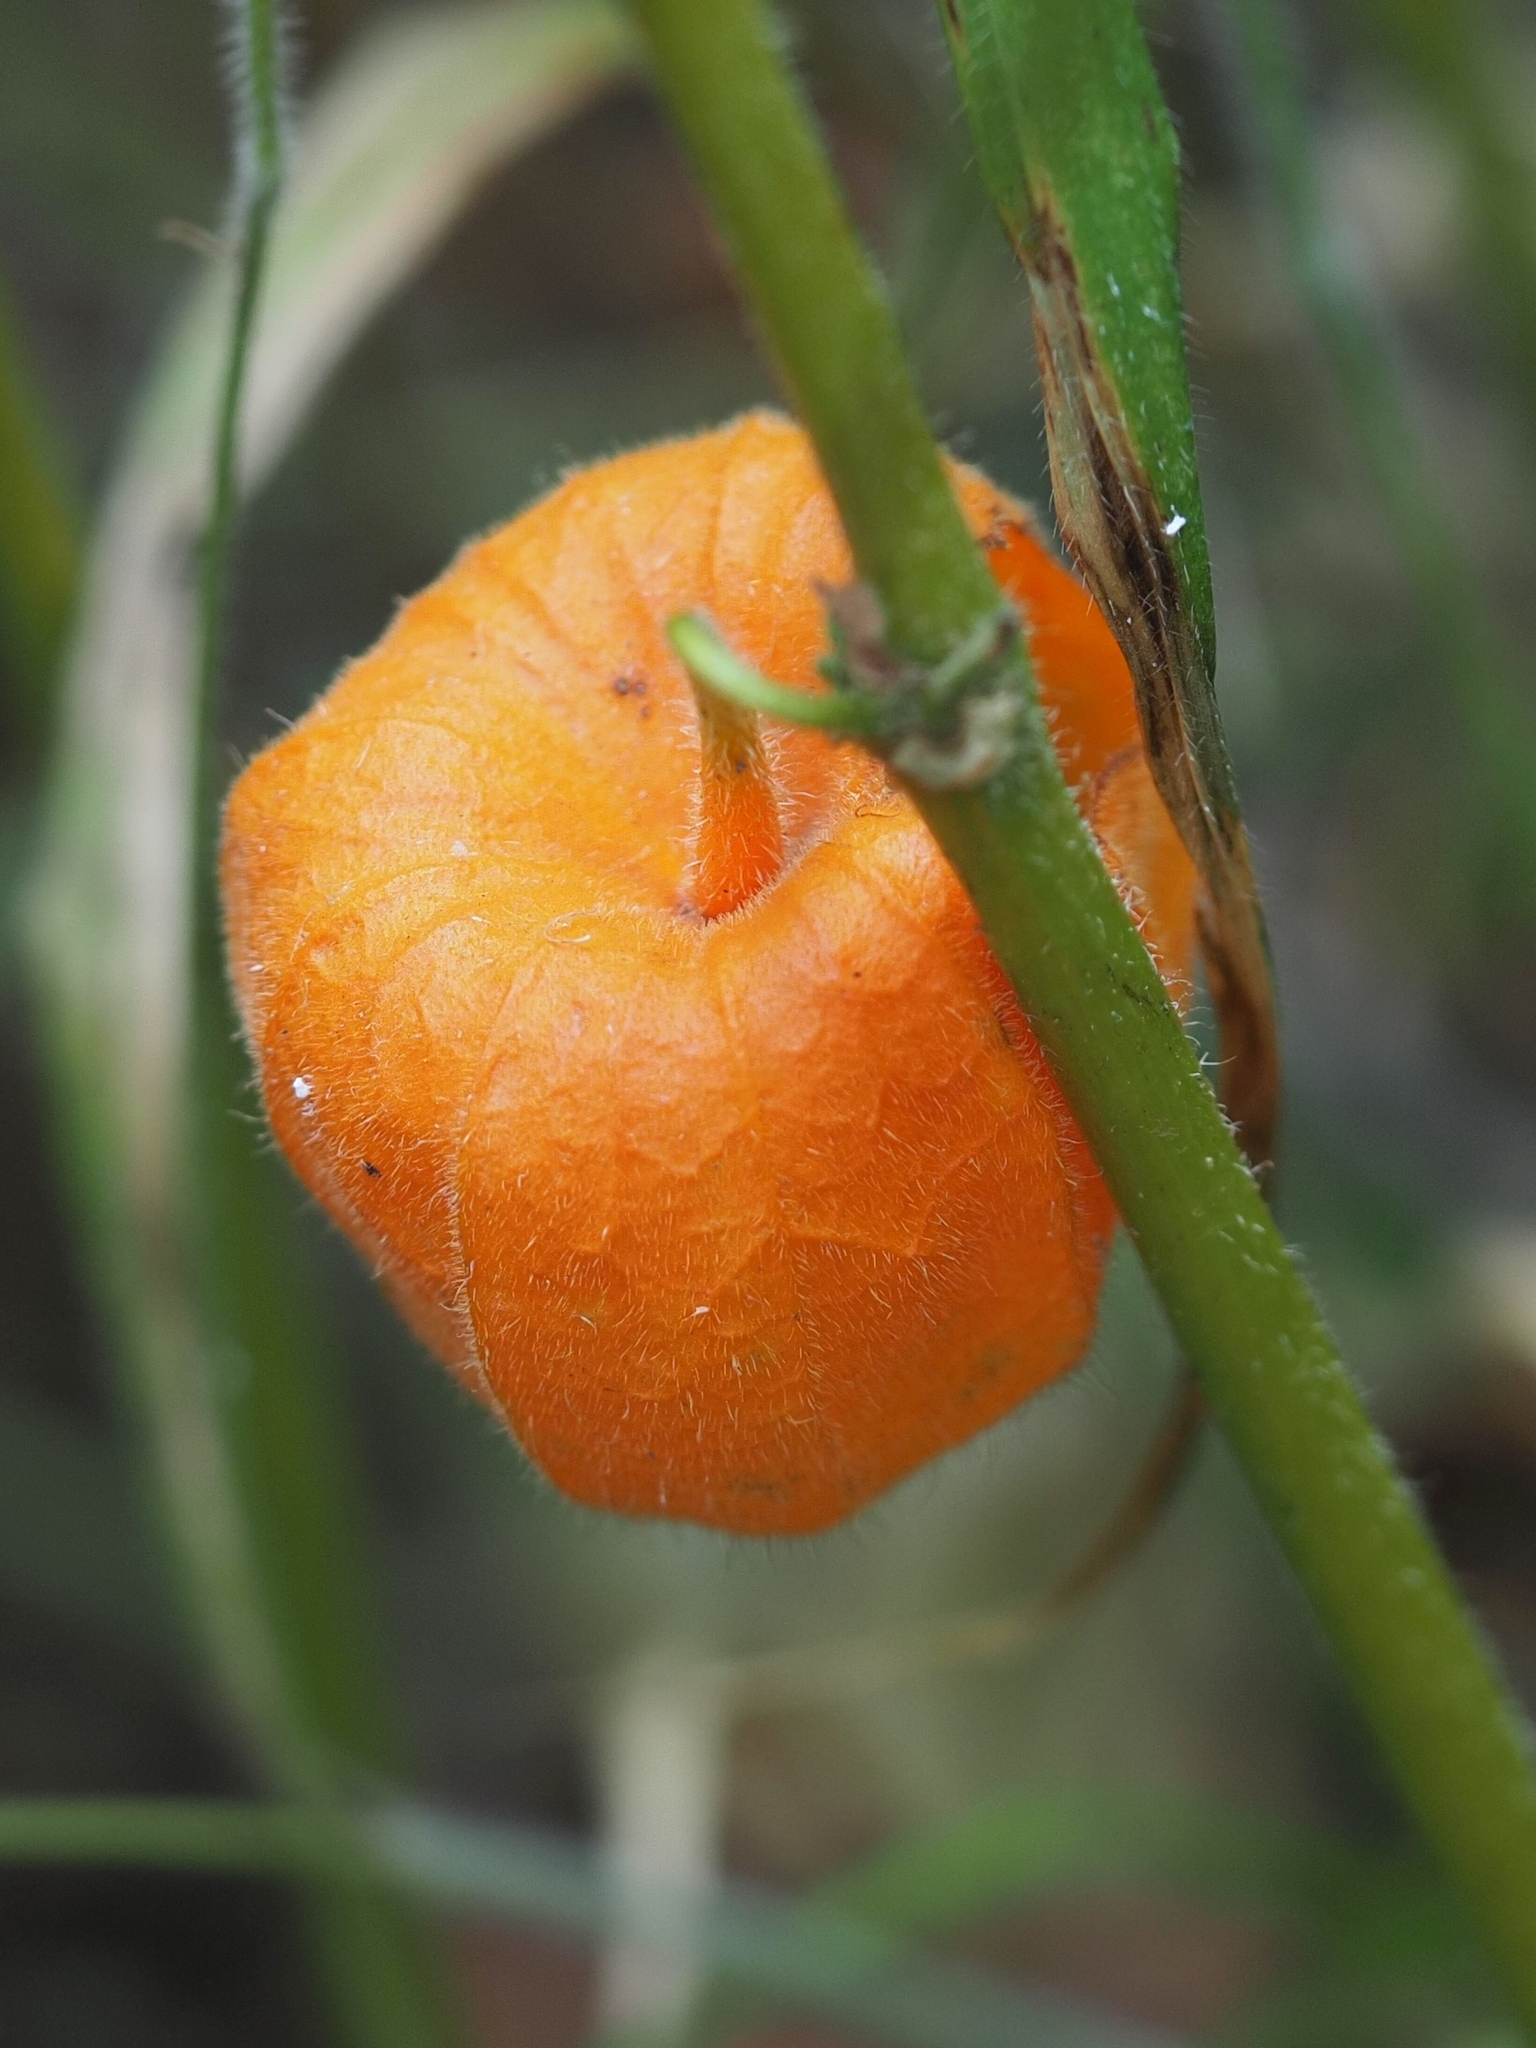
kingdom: Plantae
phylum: Tracheophyta
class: Magnoliopsida
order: Solanales
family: Solanaceae
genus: Alkekengi
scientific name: Alkekengi officinarum
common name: Japanese-lantern
